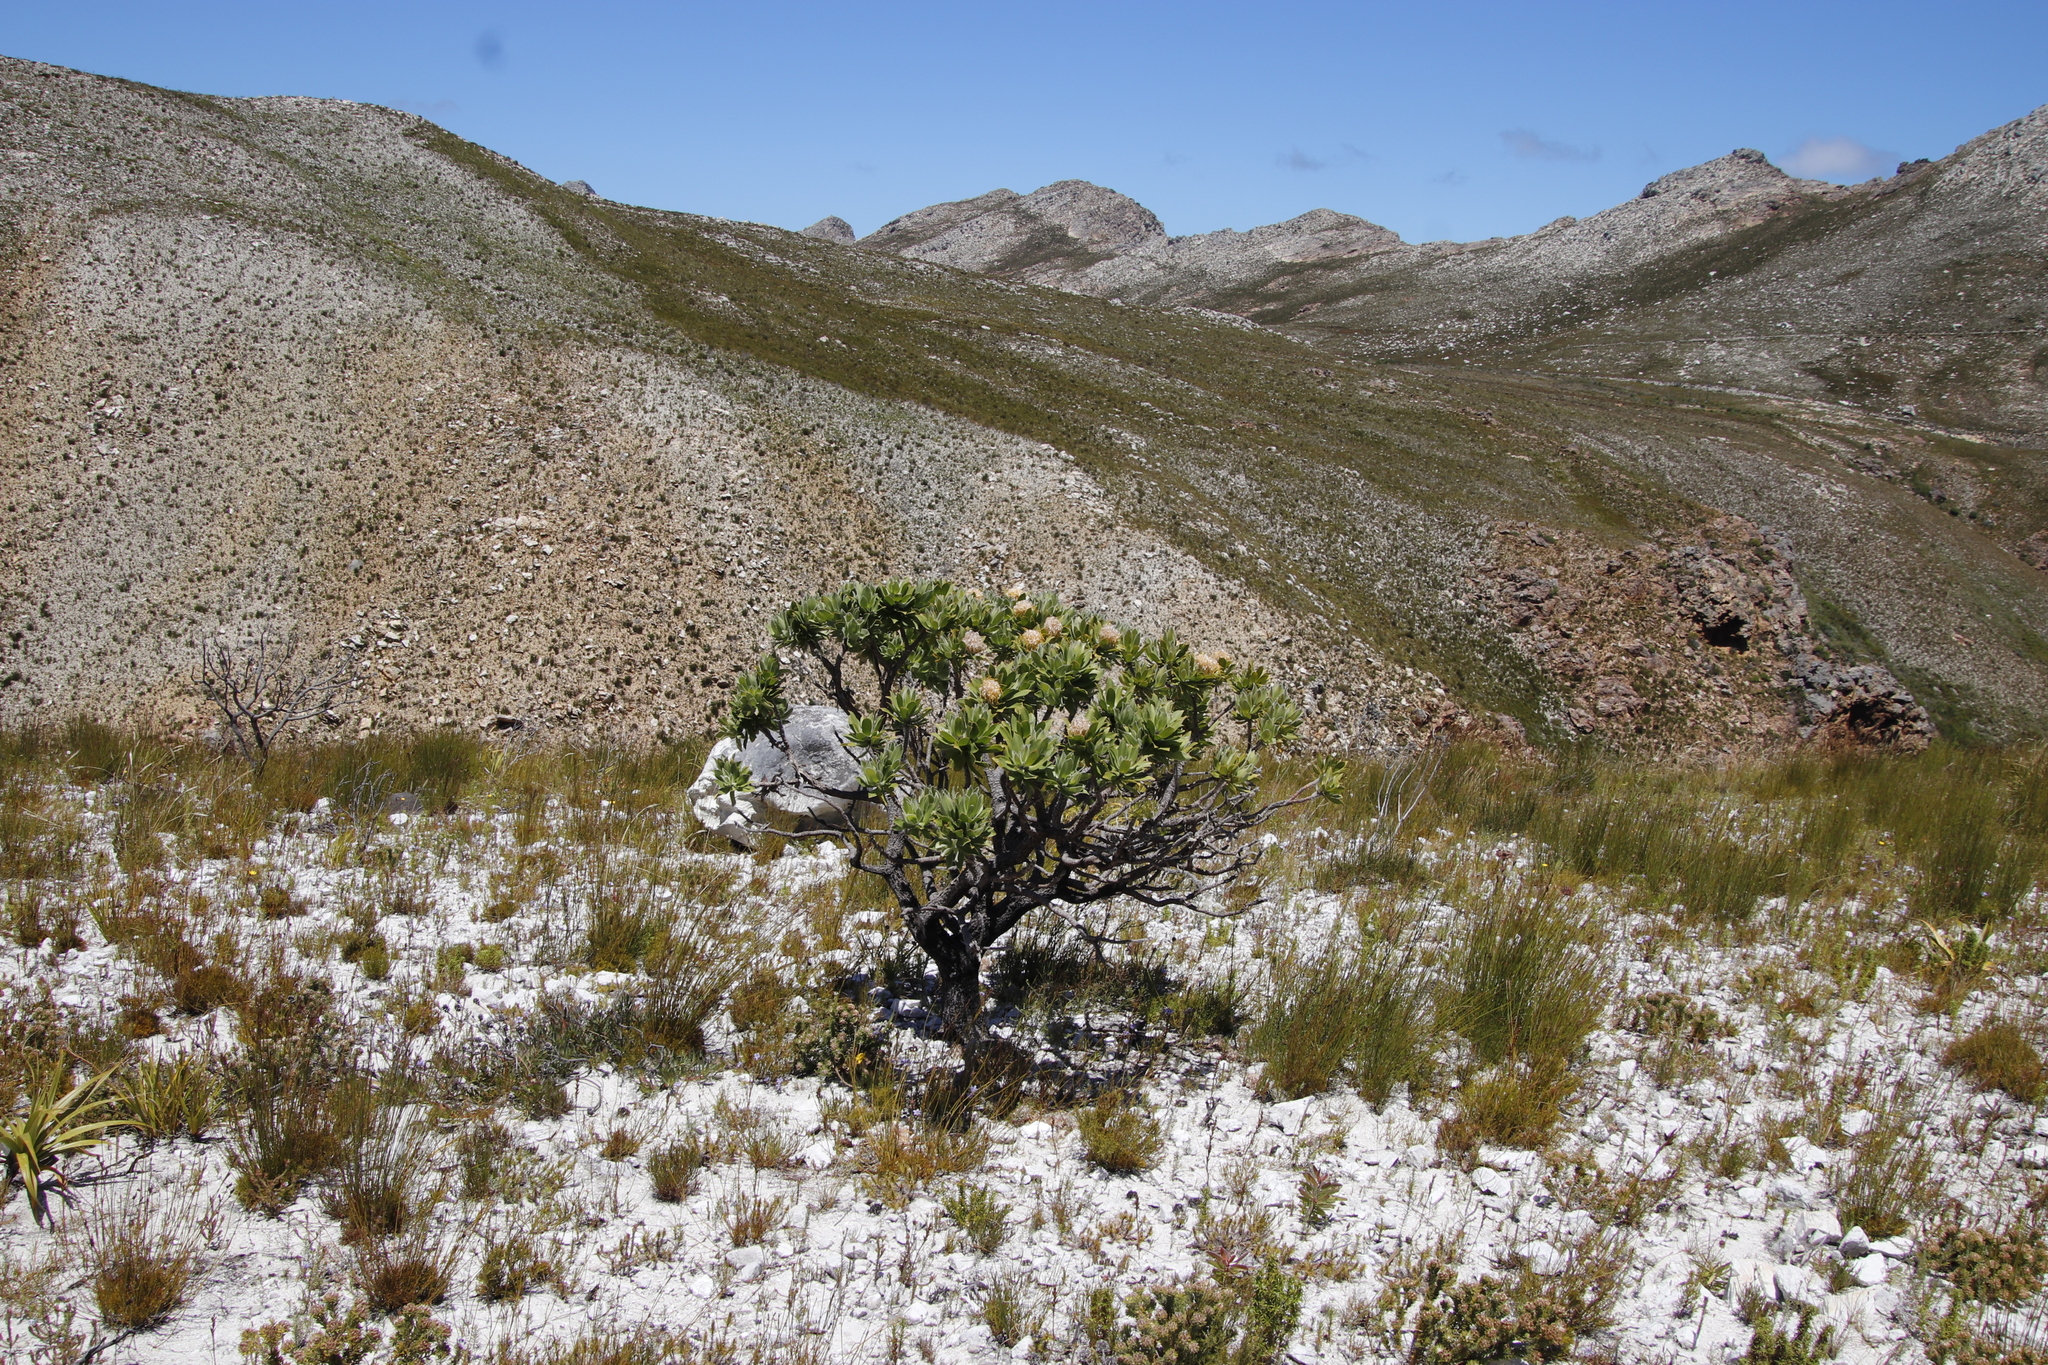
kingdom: Plantae
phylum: Tracheophyta
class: Magnoliopsida
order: Proteales
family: Proteaceae
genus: Leucospermum
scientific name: Leucospermum conocarpodendron
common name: Tree pincushion
